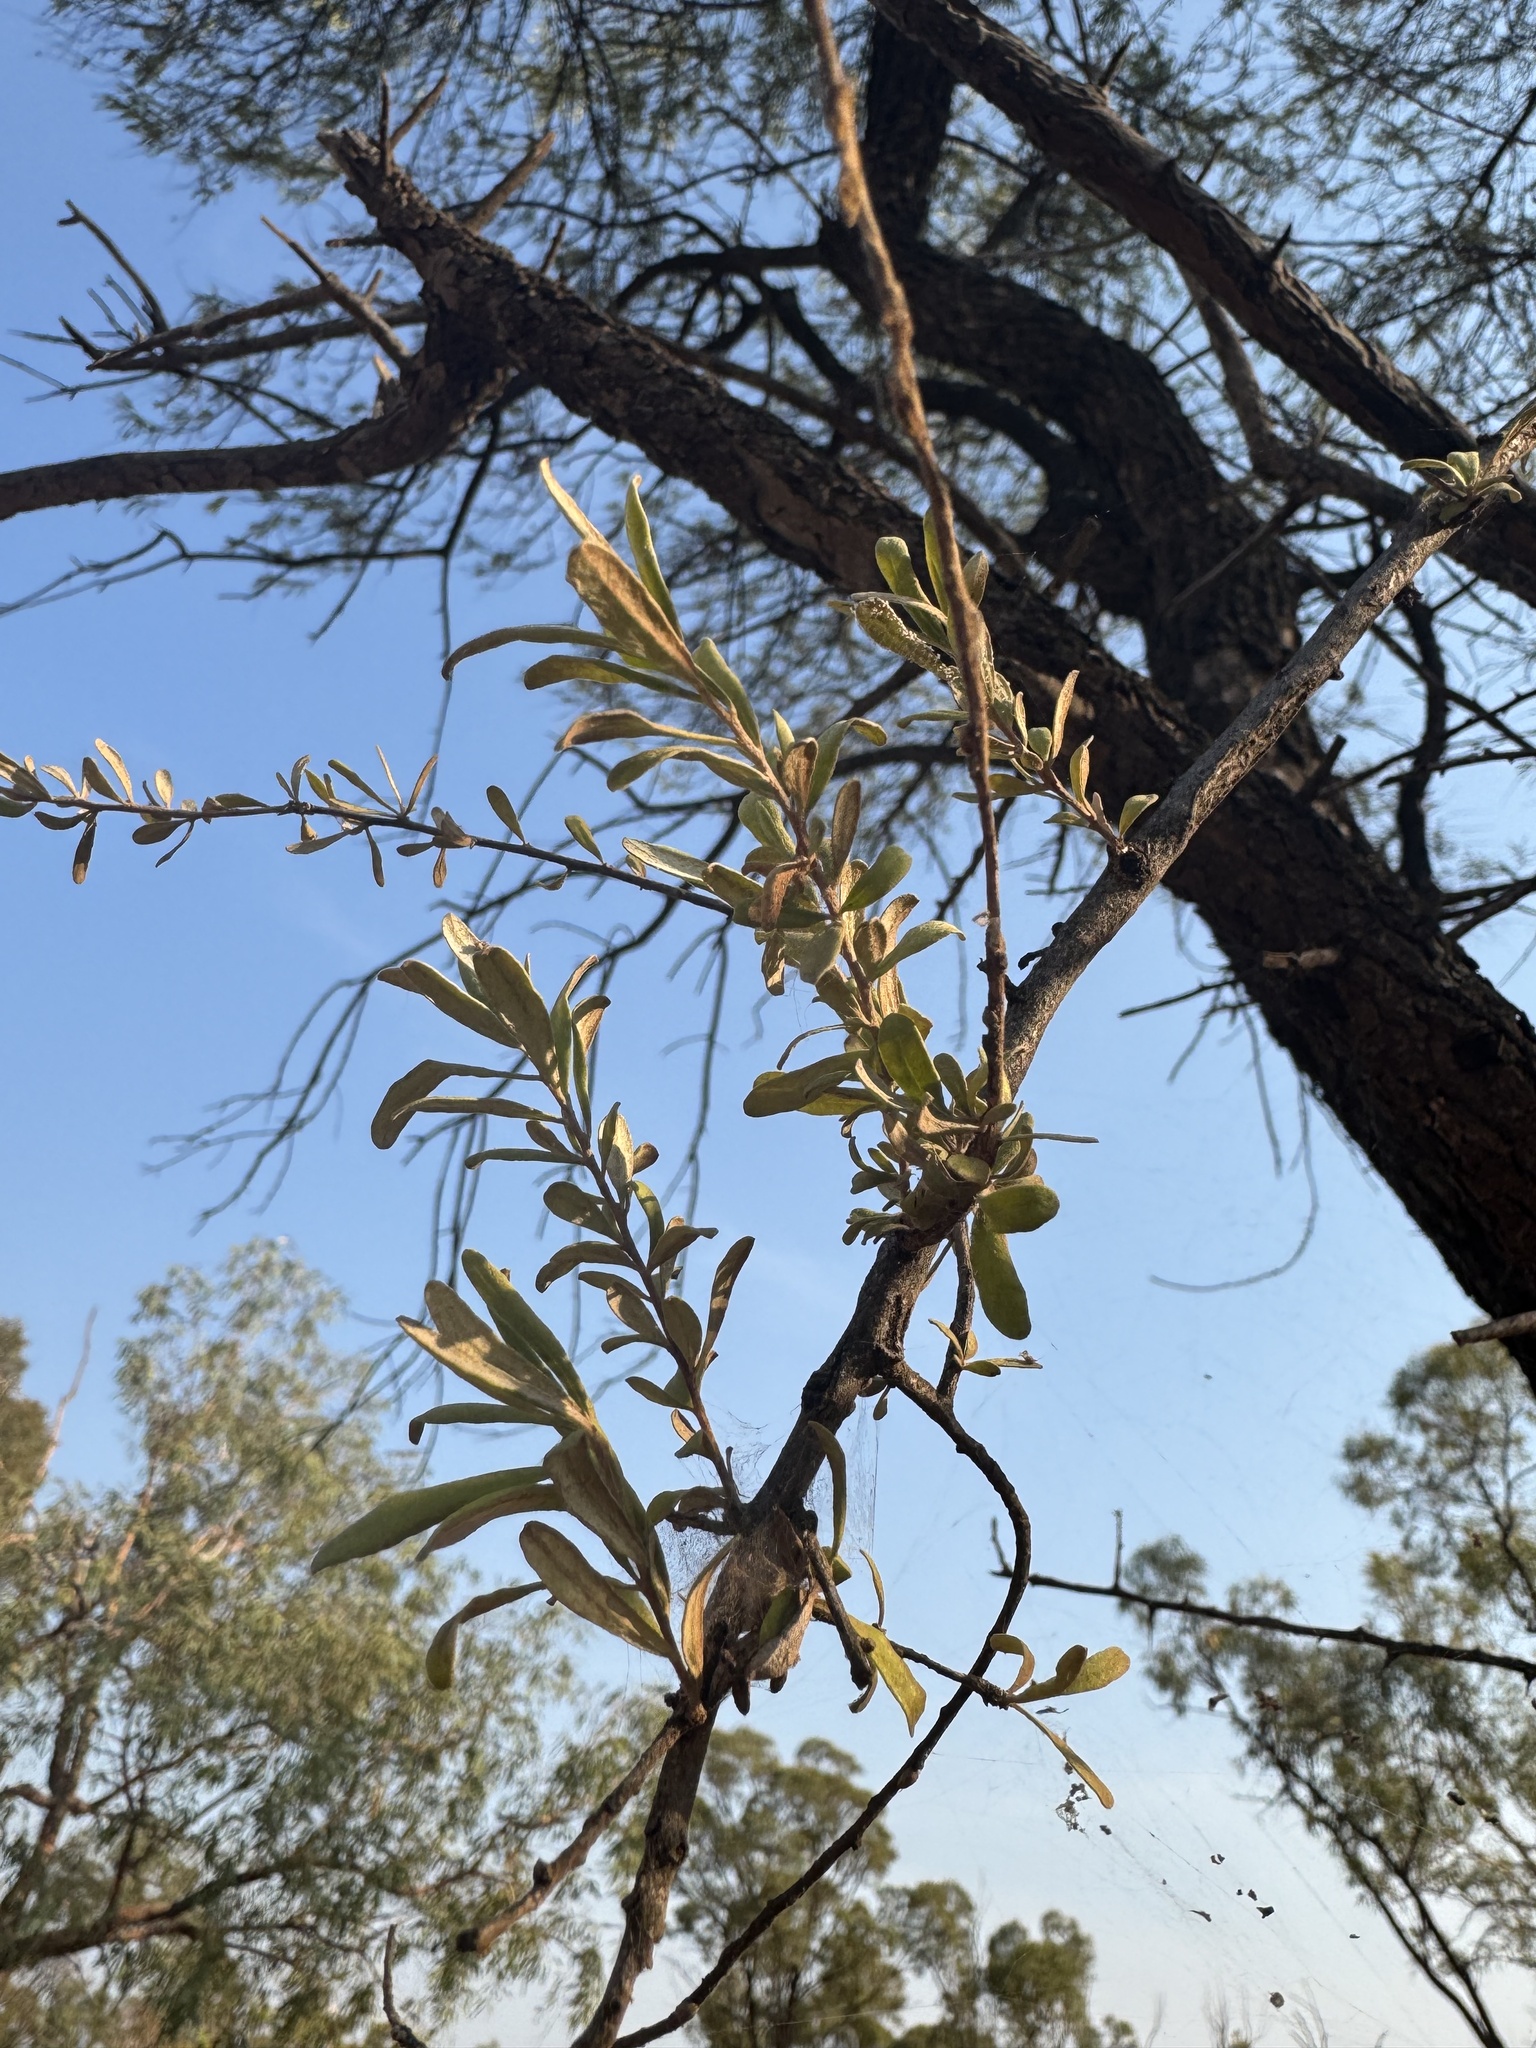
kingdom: Plantae
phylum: Tracheophyta
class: Magnoliopsida
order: Apiales
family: Pittosporaceae
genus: Bursaria
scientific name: Bursaria incana
